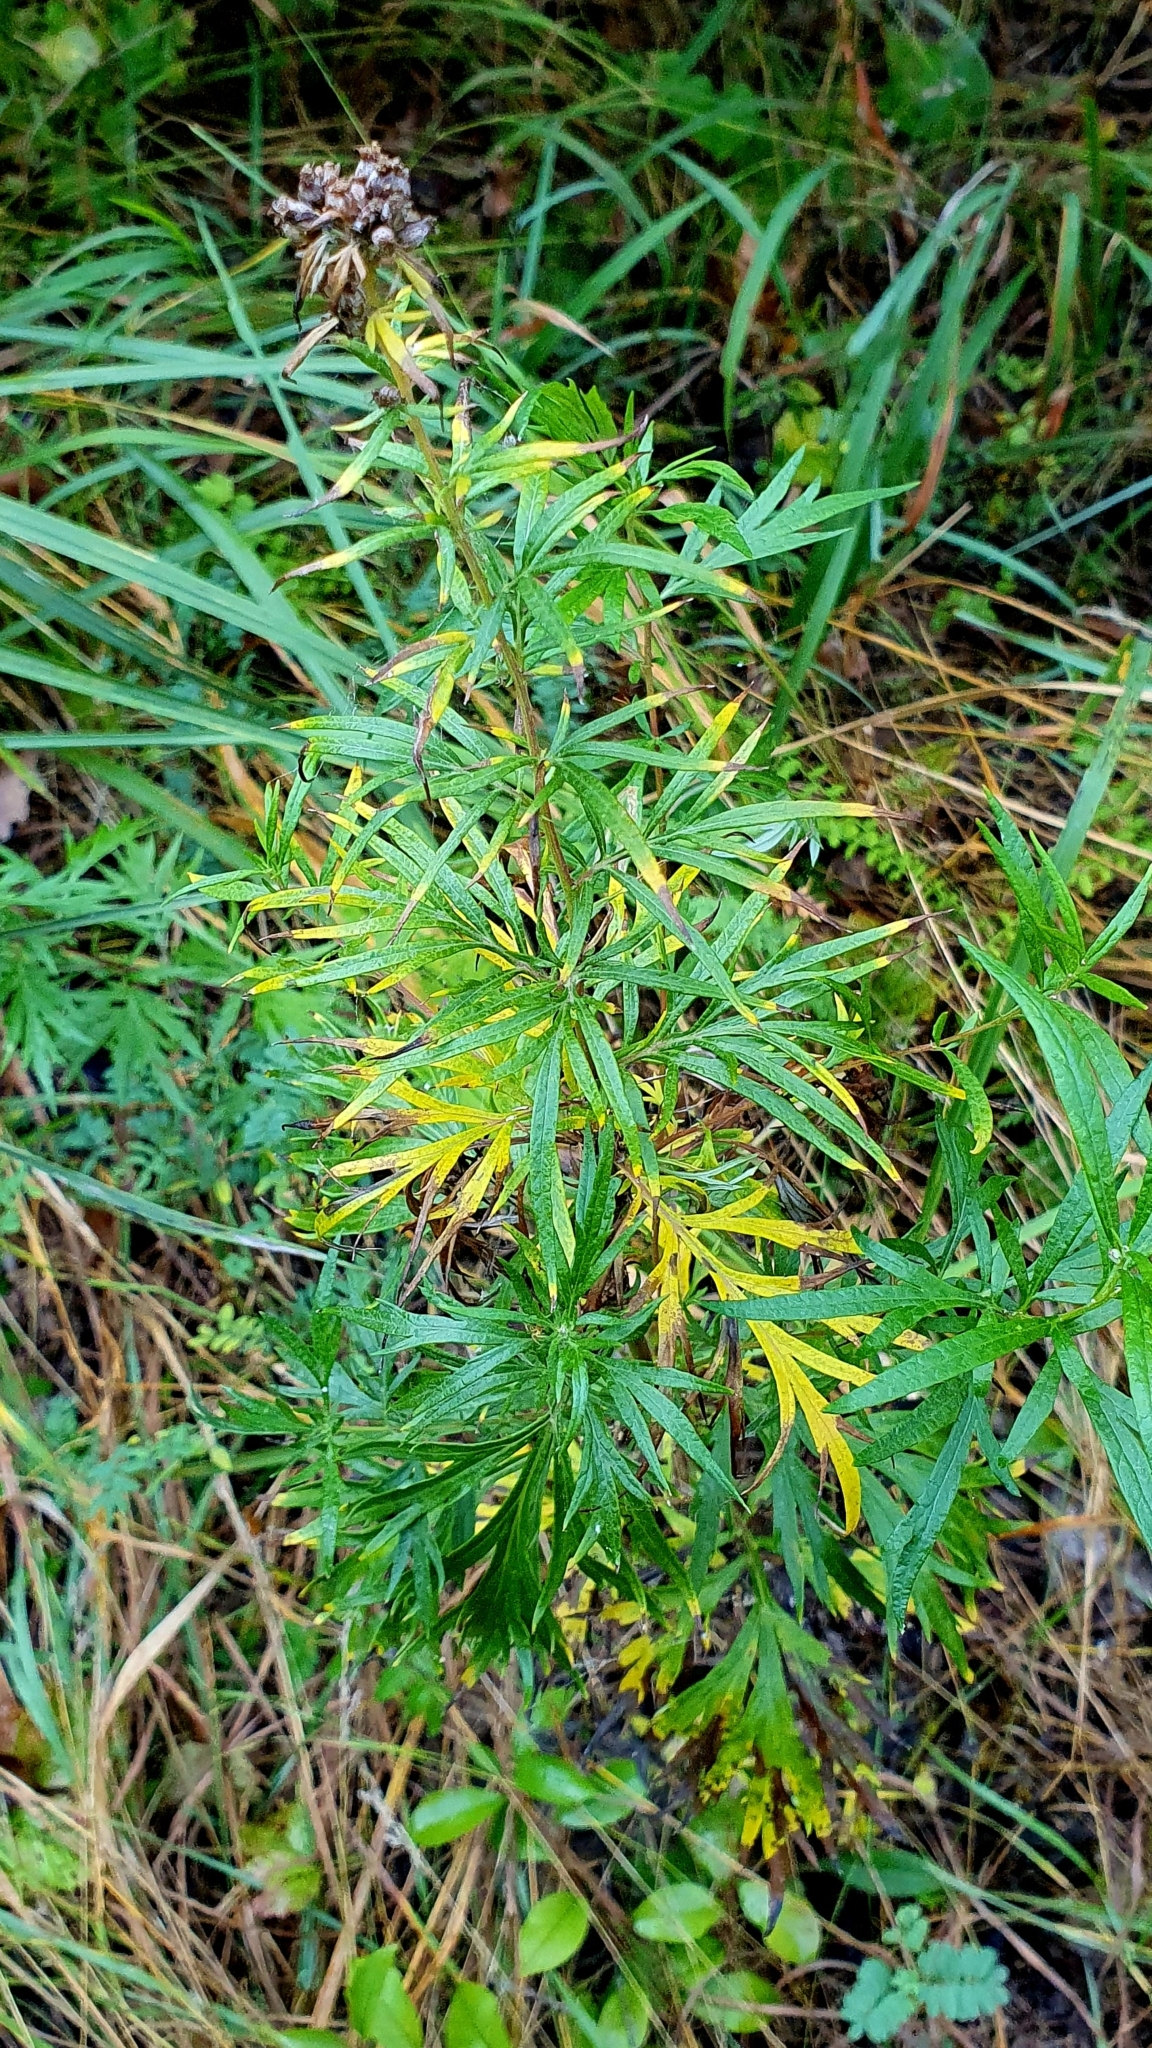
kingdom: Plantae
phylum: Tracheophyta
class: Magnoliopsida
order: Asterales
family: Asteraceae
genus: Artemisia
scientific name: Artemisia vulgaris
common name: Mugwort
